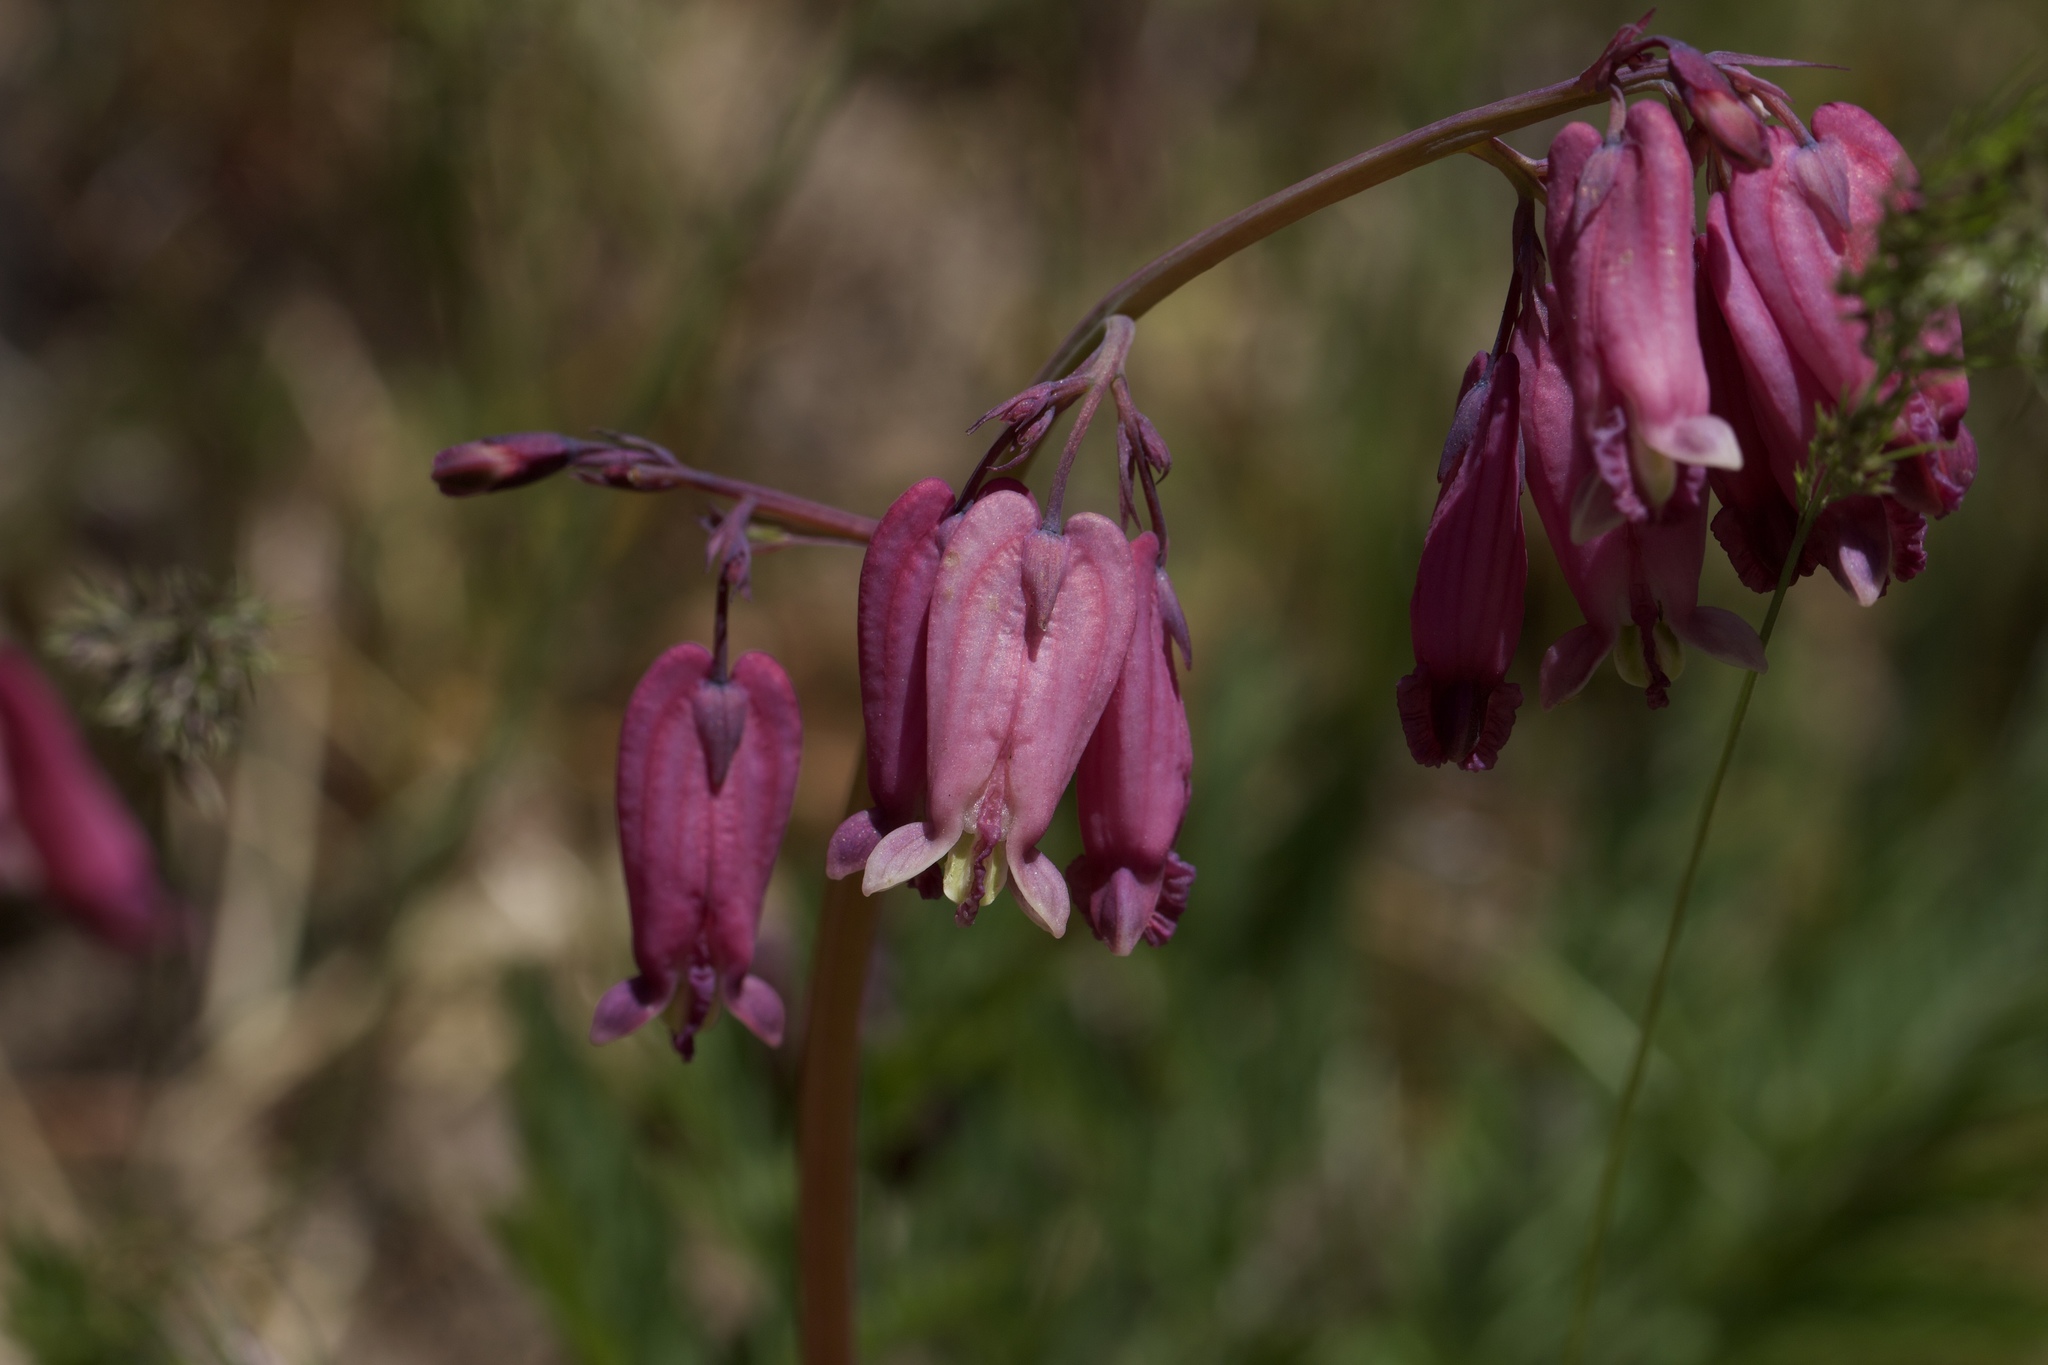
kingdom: Plantae
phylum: Tracheophyta
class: Magnoliopsida
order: Ranunculales
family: Papaveraceae
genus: Dicentra
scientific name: Dicentra formosa
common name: Bleeding-heart
